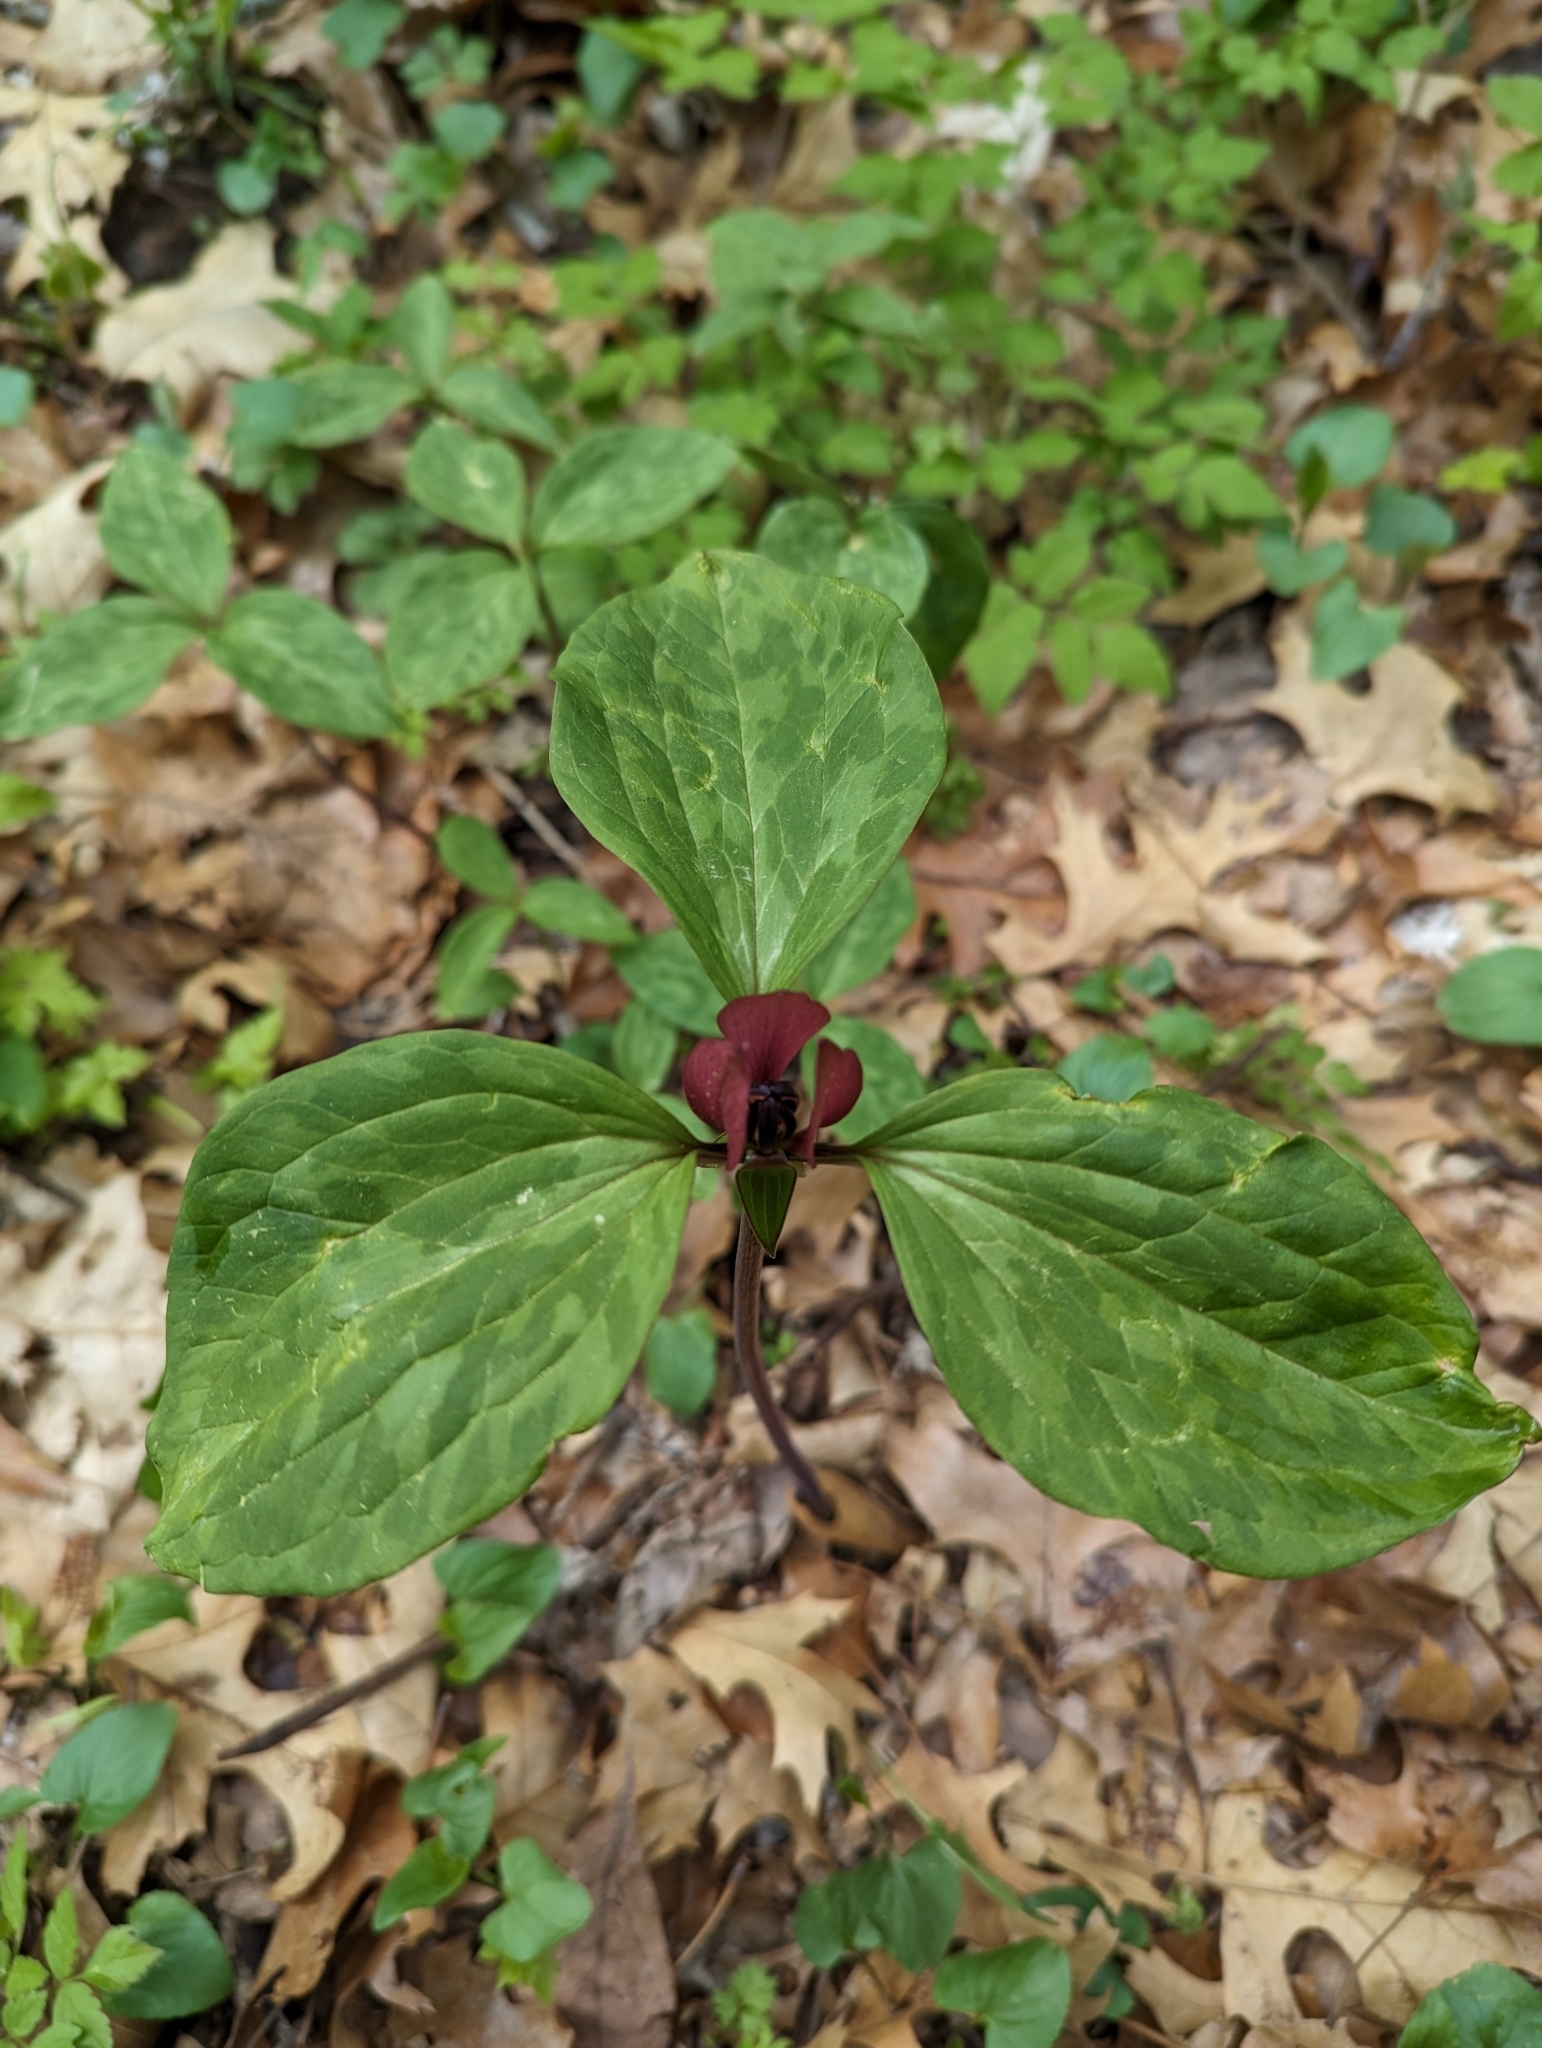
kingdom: Plantae
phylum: Tracheophyta
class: Liliopsida
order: Liliales
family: Melanthiaceae
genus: Trillium
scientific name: Trillium recurvatum
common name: Bloody butcher
